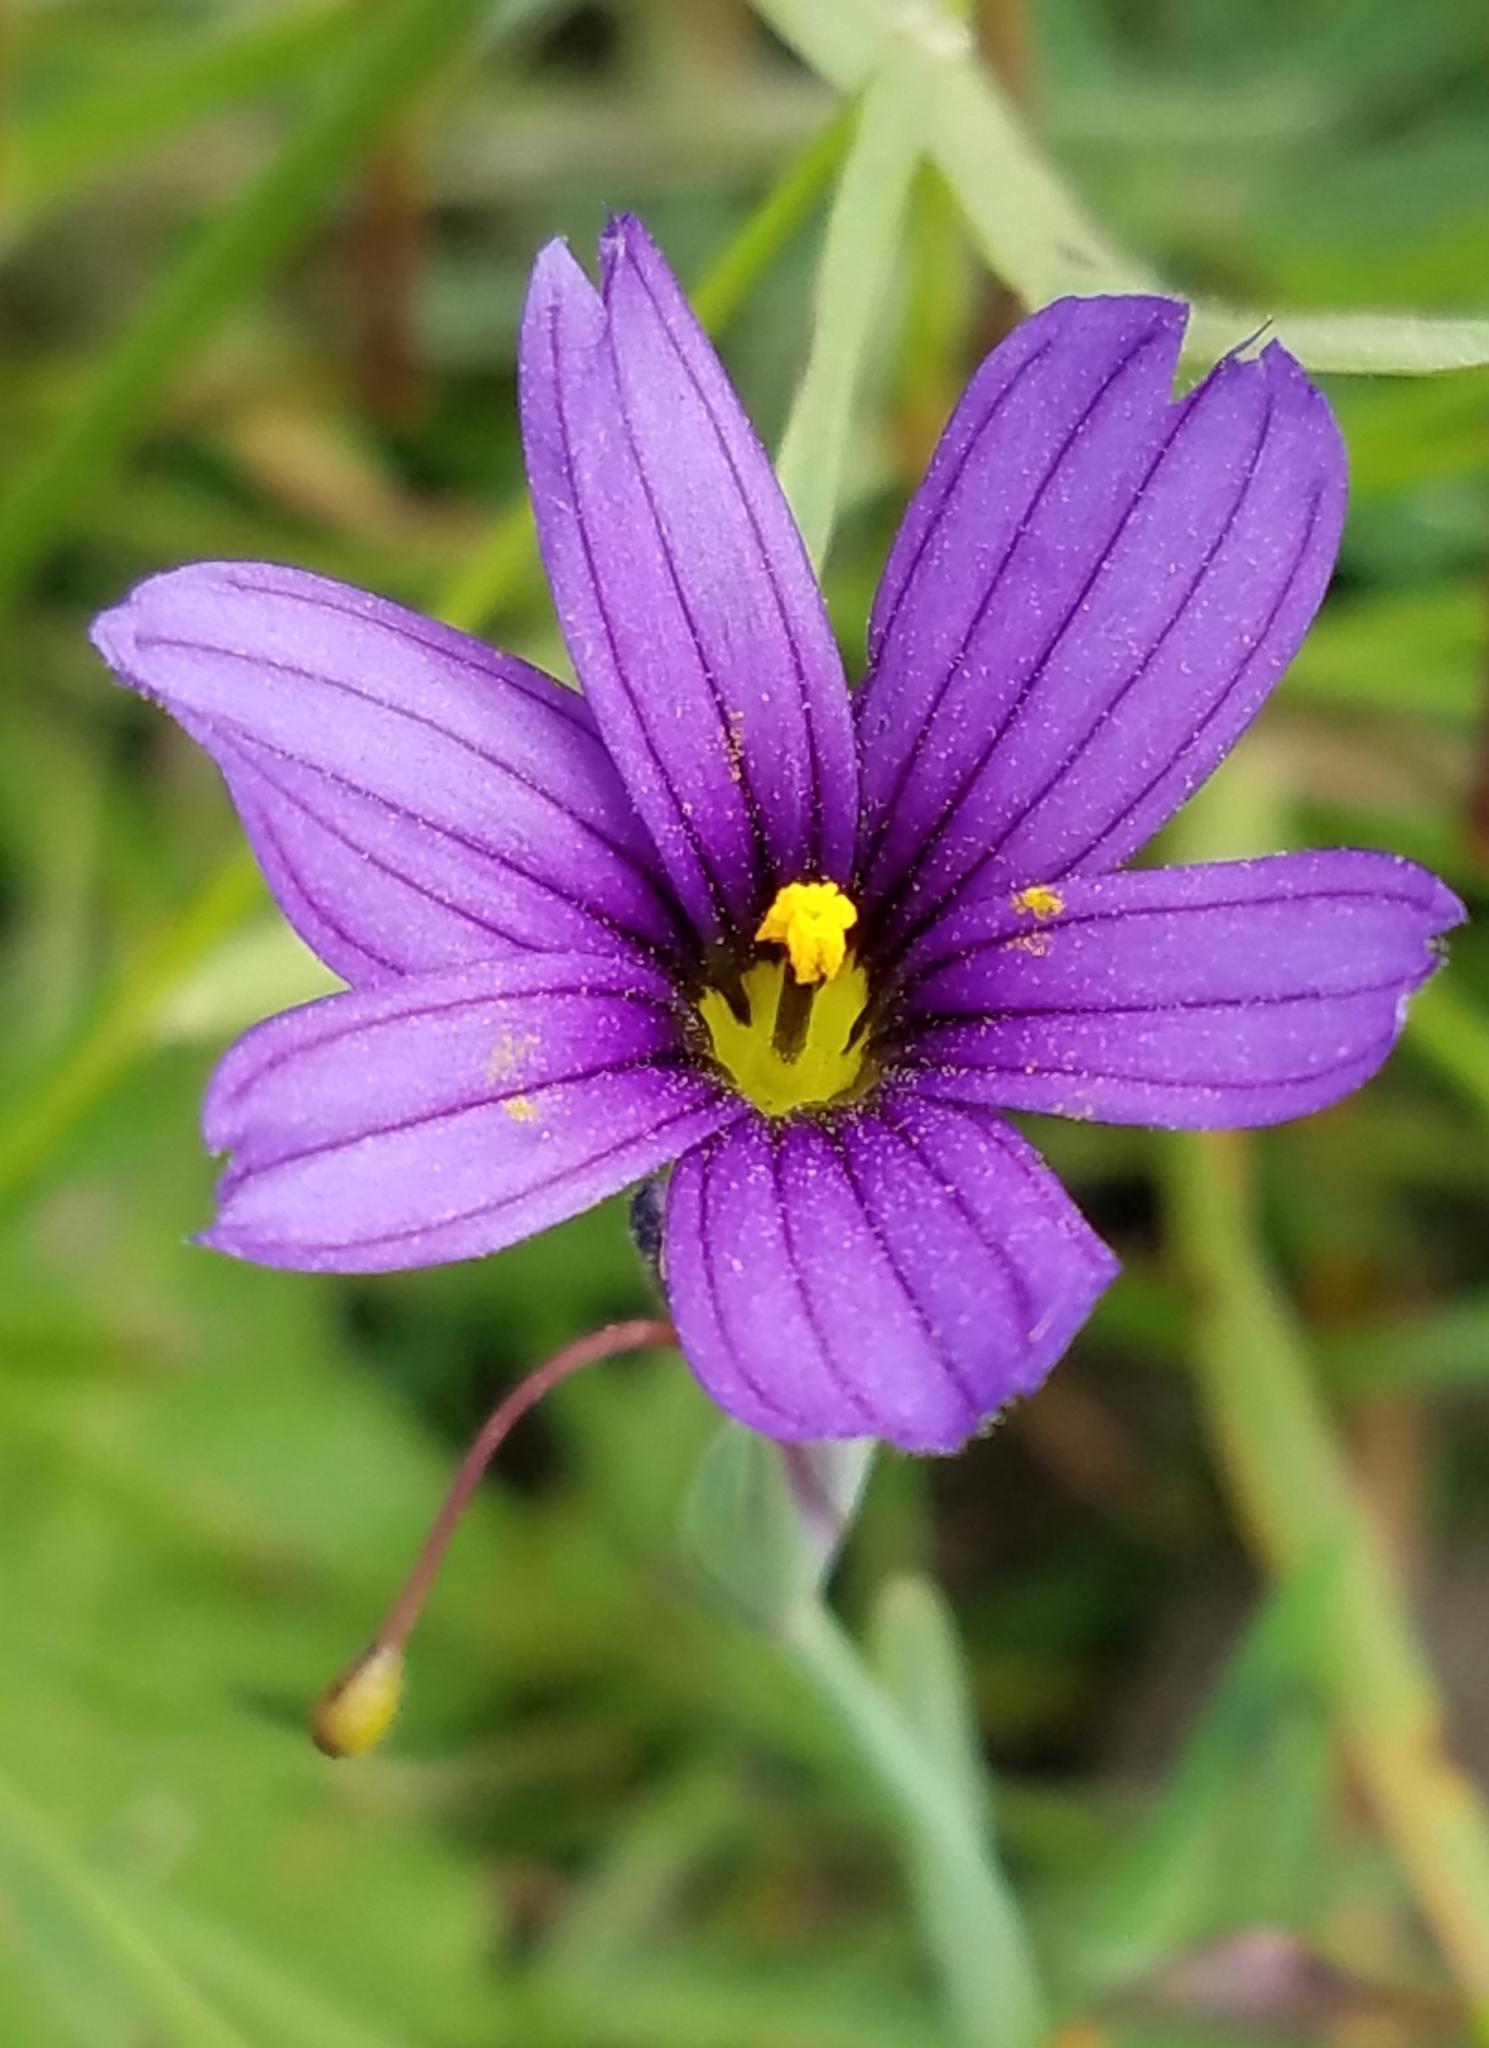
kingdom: Plantae
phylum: Tracheophyta
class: Liliopsida
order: Asparagales
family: Iridaceae
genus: Sisyrinchium
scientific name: Sisyrinchium bellum
